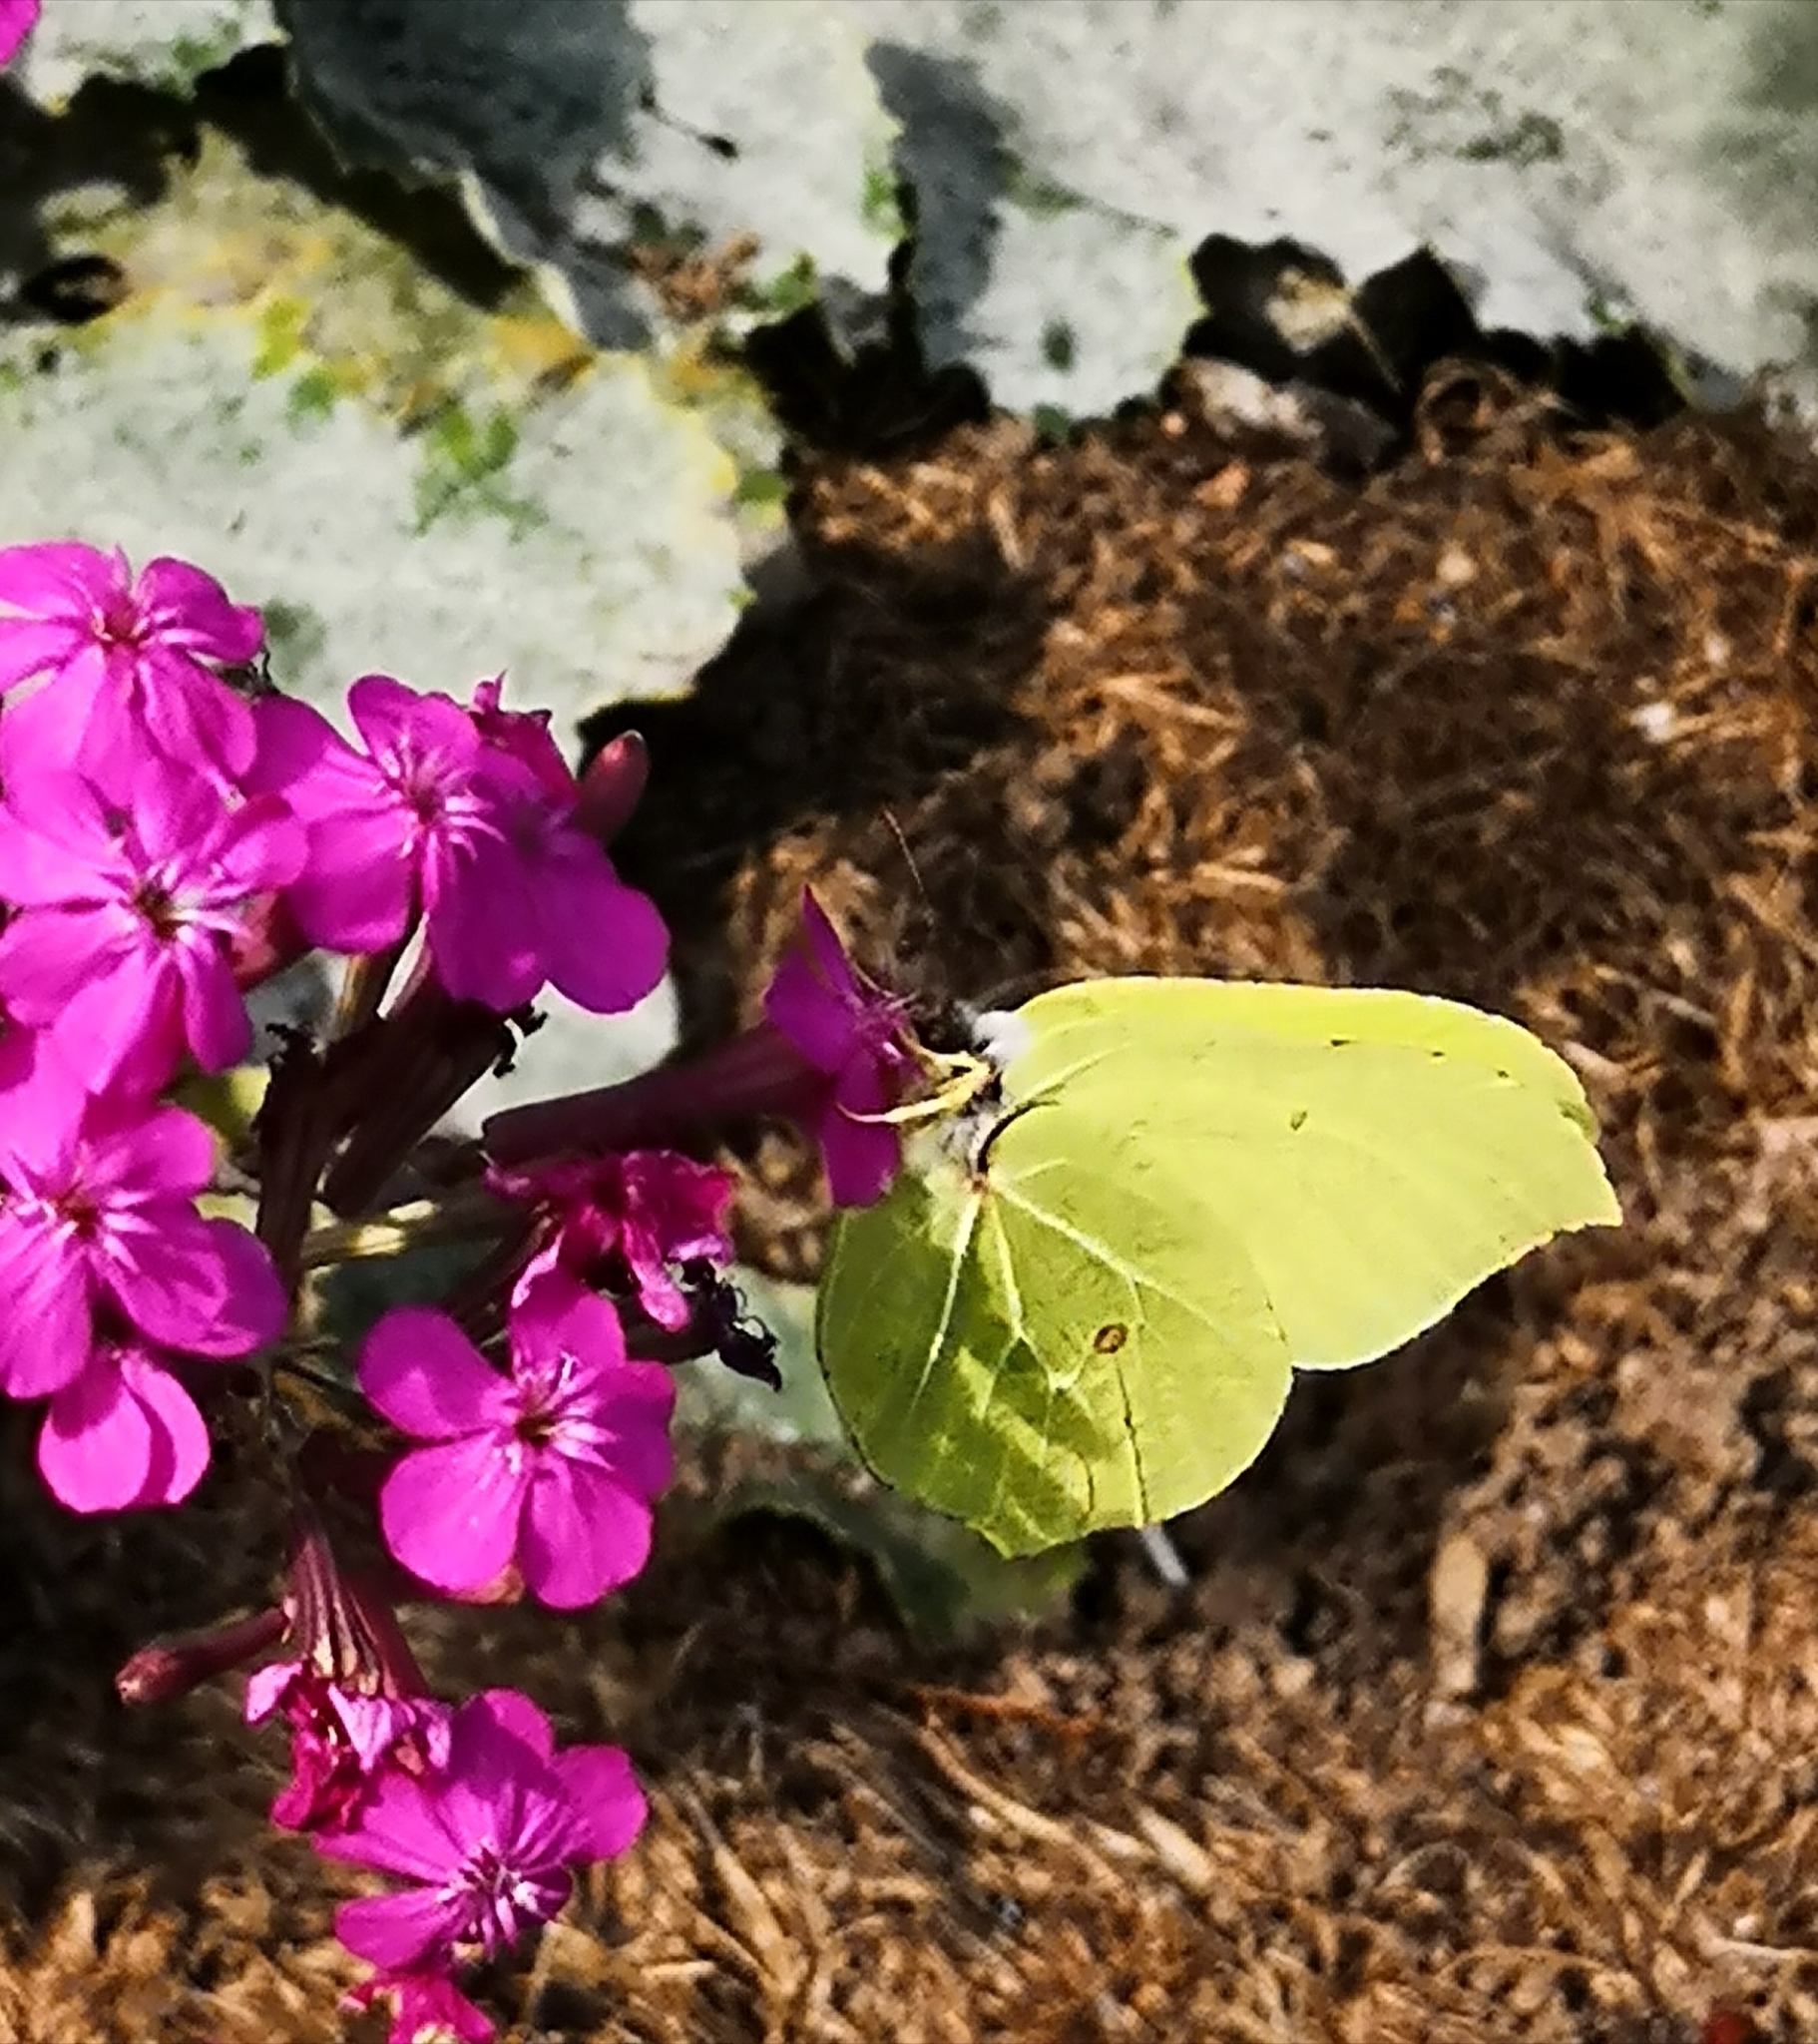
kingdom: Animalia
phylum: Arthropoda
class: Insecta
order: Lepidoptera
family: Pieridae
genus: Gonepteryx
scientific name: Gonepteryx rhamni
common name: Brimstone
